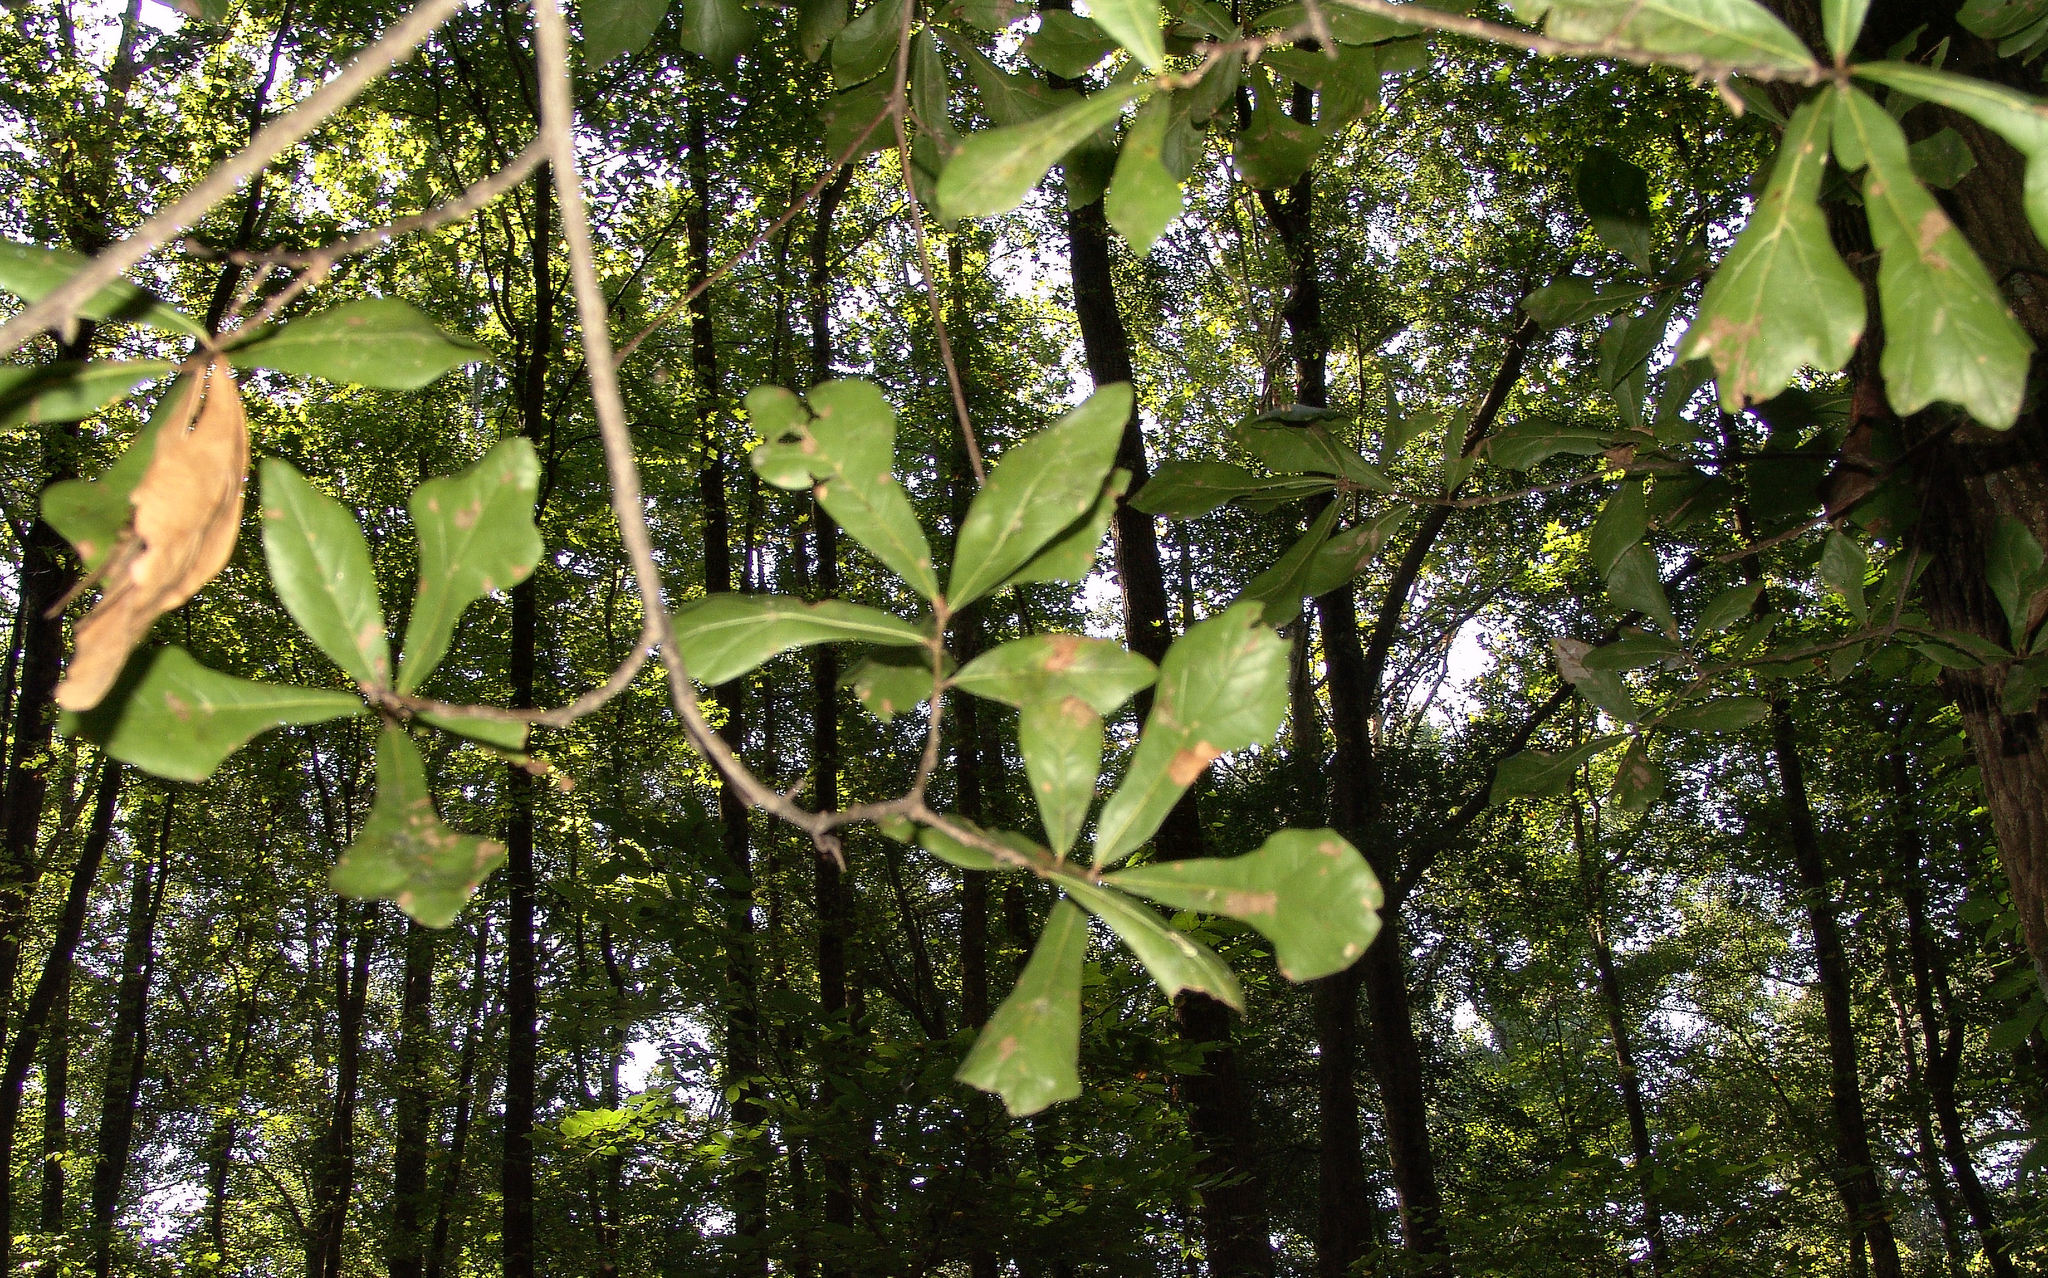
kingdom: Plantae
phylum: Tracheophyta
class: Magnoliopsida
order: Fagales
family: Fagaceae
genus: Quercus
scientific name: Quercus nigra
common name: Water oak
